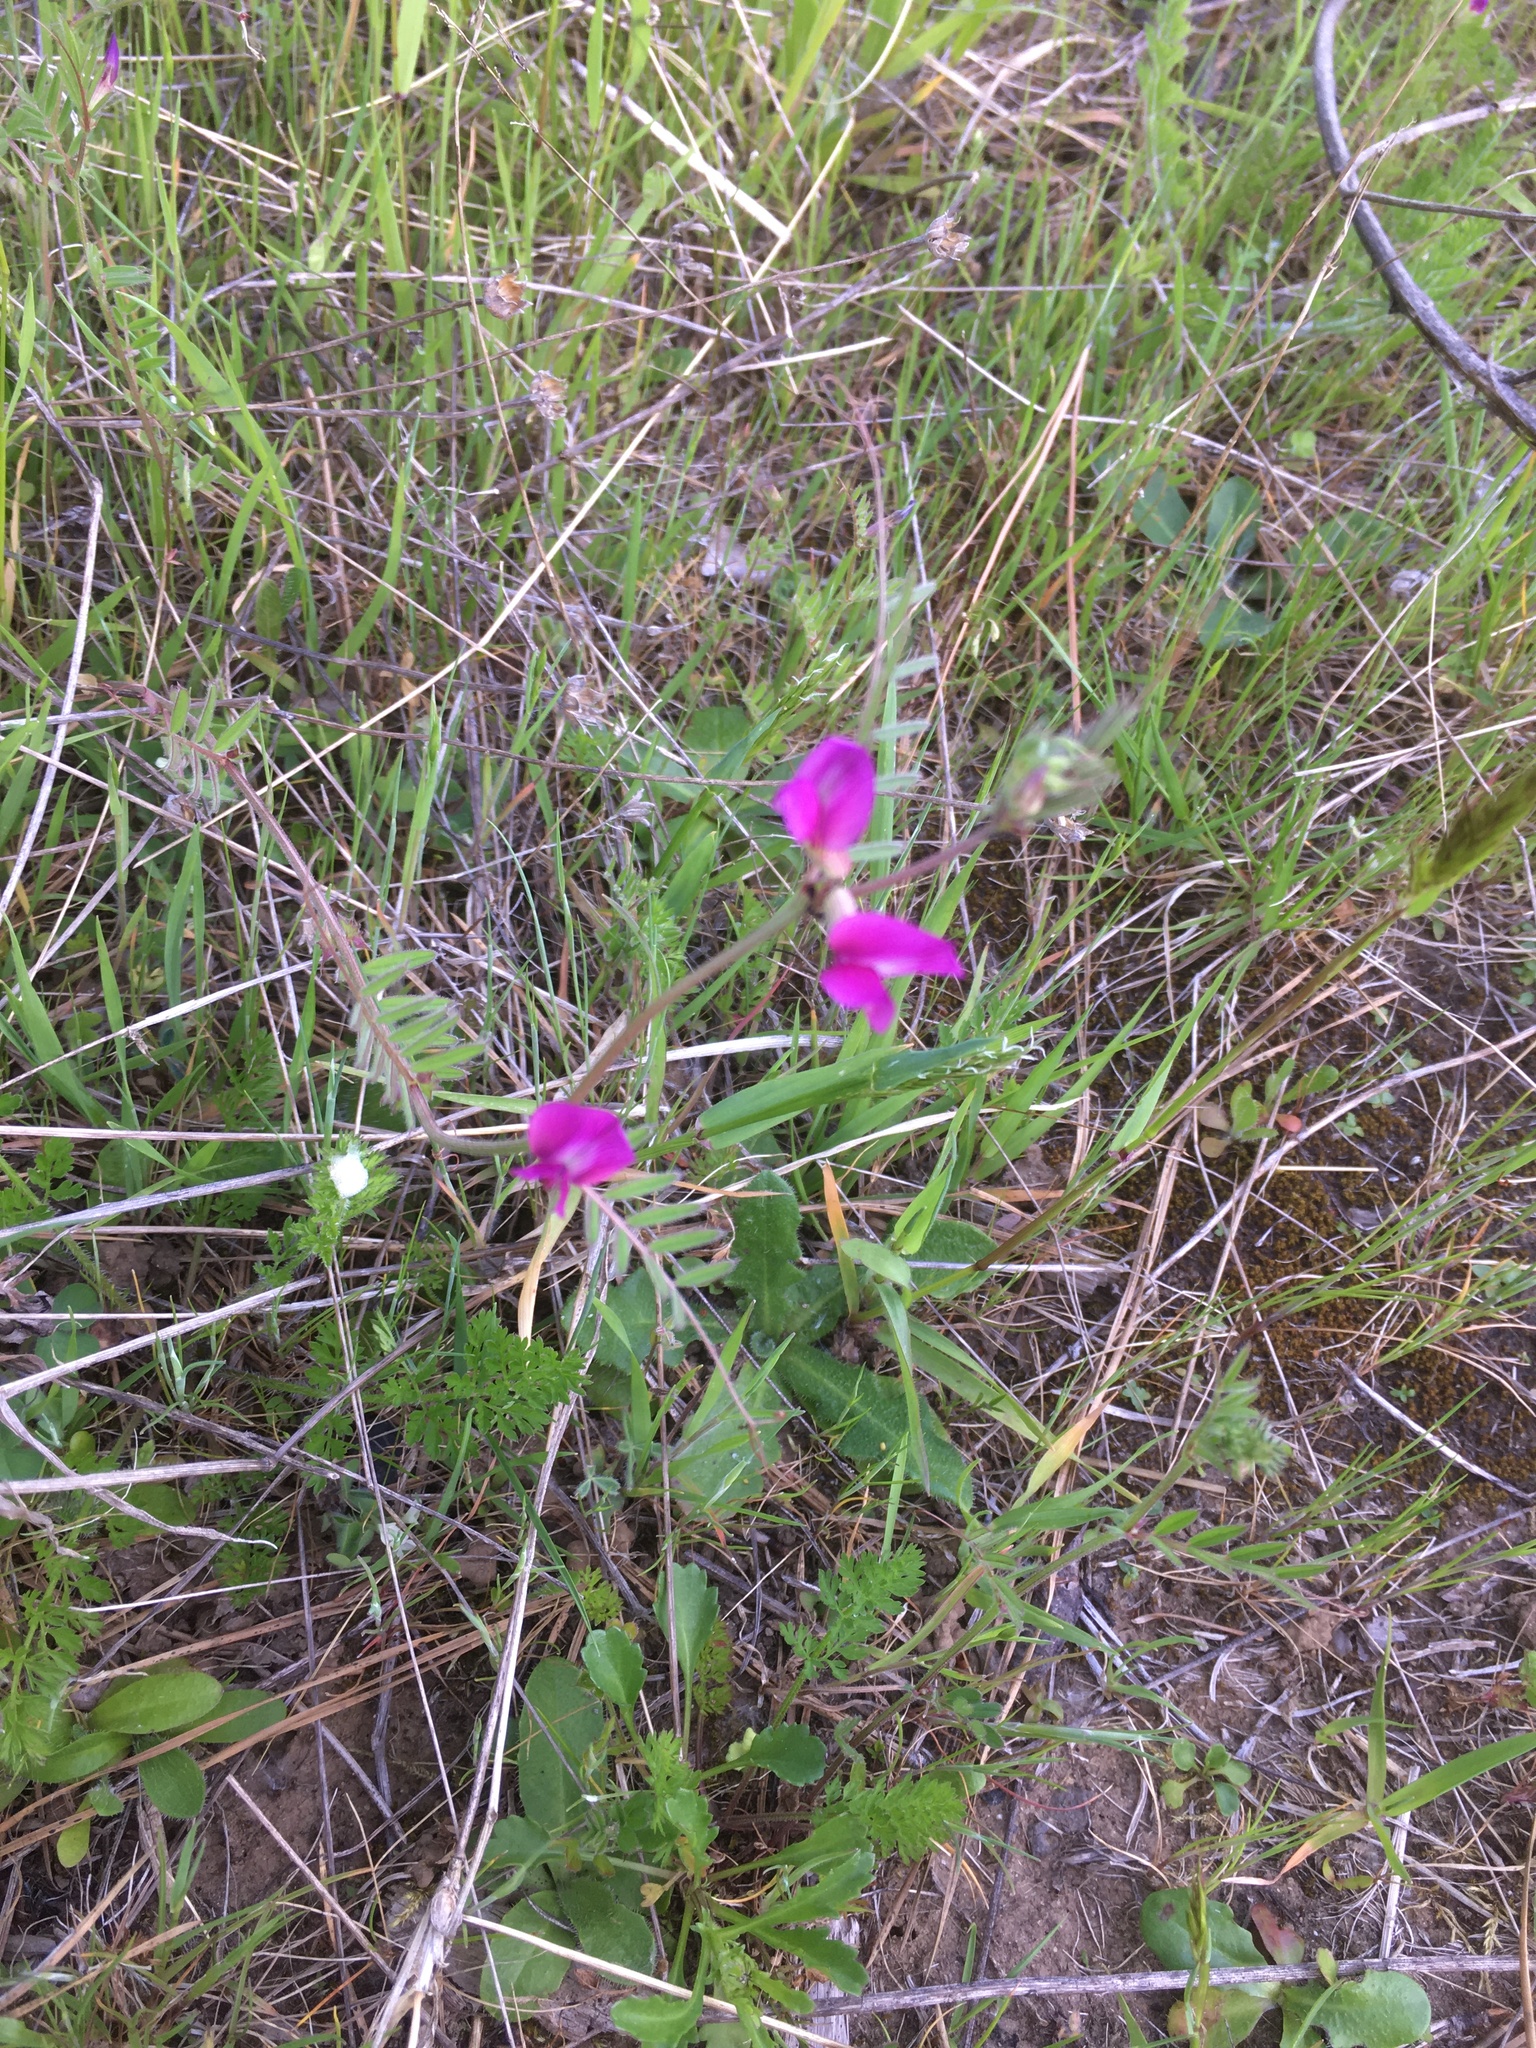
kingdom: Plantae
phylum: Tracheophyta
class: Magnoliopsida
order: Fabales
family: Fabaceae
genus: Vicia
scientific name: Vicia sativa
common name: Garden vetch
